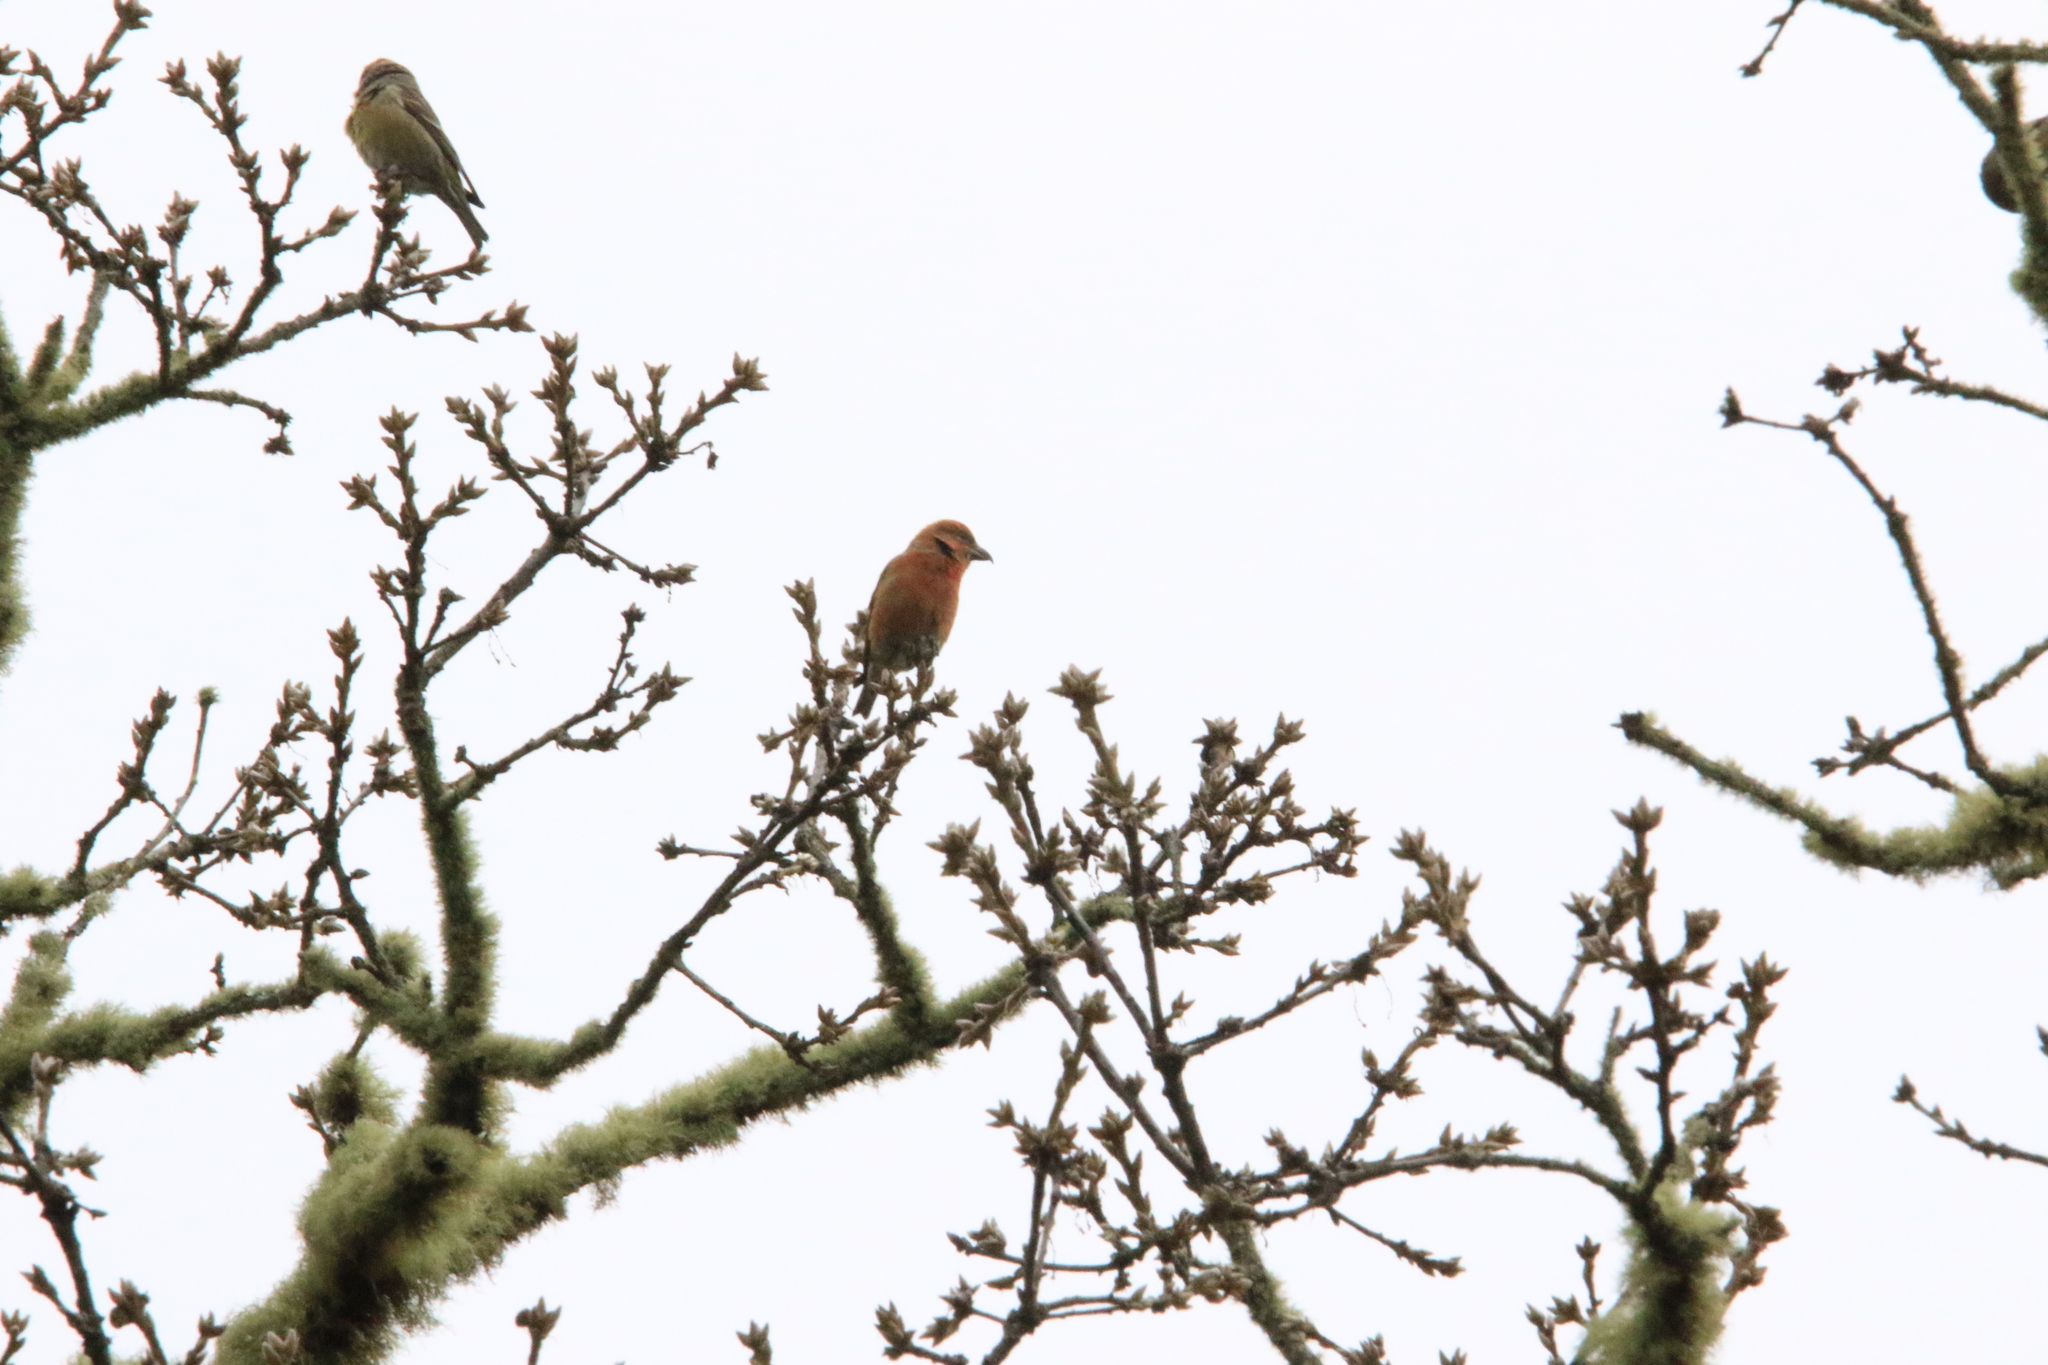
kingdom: Animalia
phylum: Chordata
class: Aves
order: Passeriformes
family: Fringillidae
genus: Loxia
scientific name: Loxia curvirostra
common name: Red crossbill
